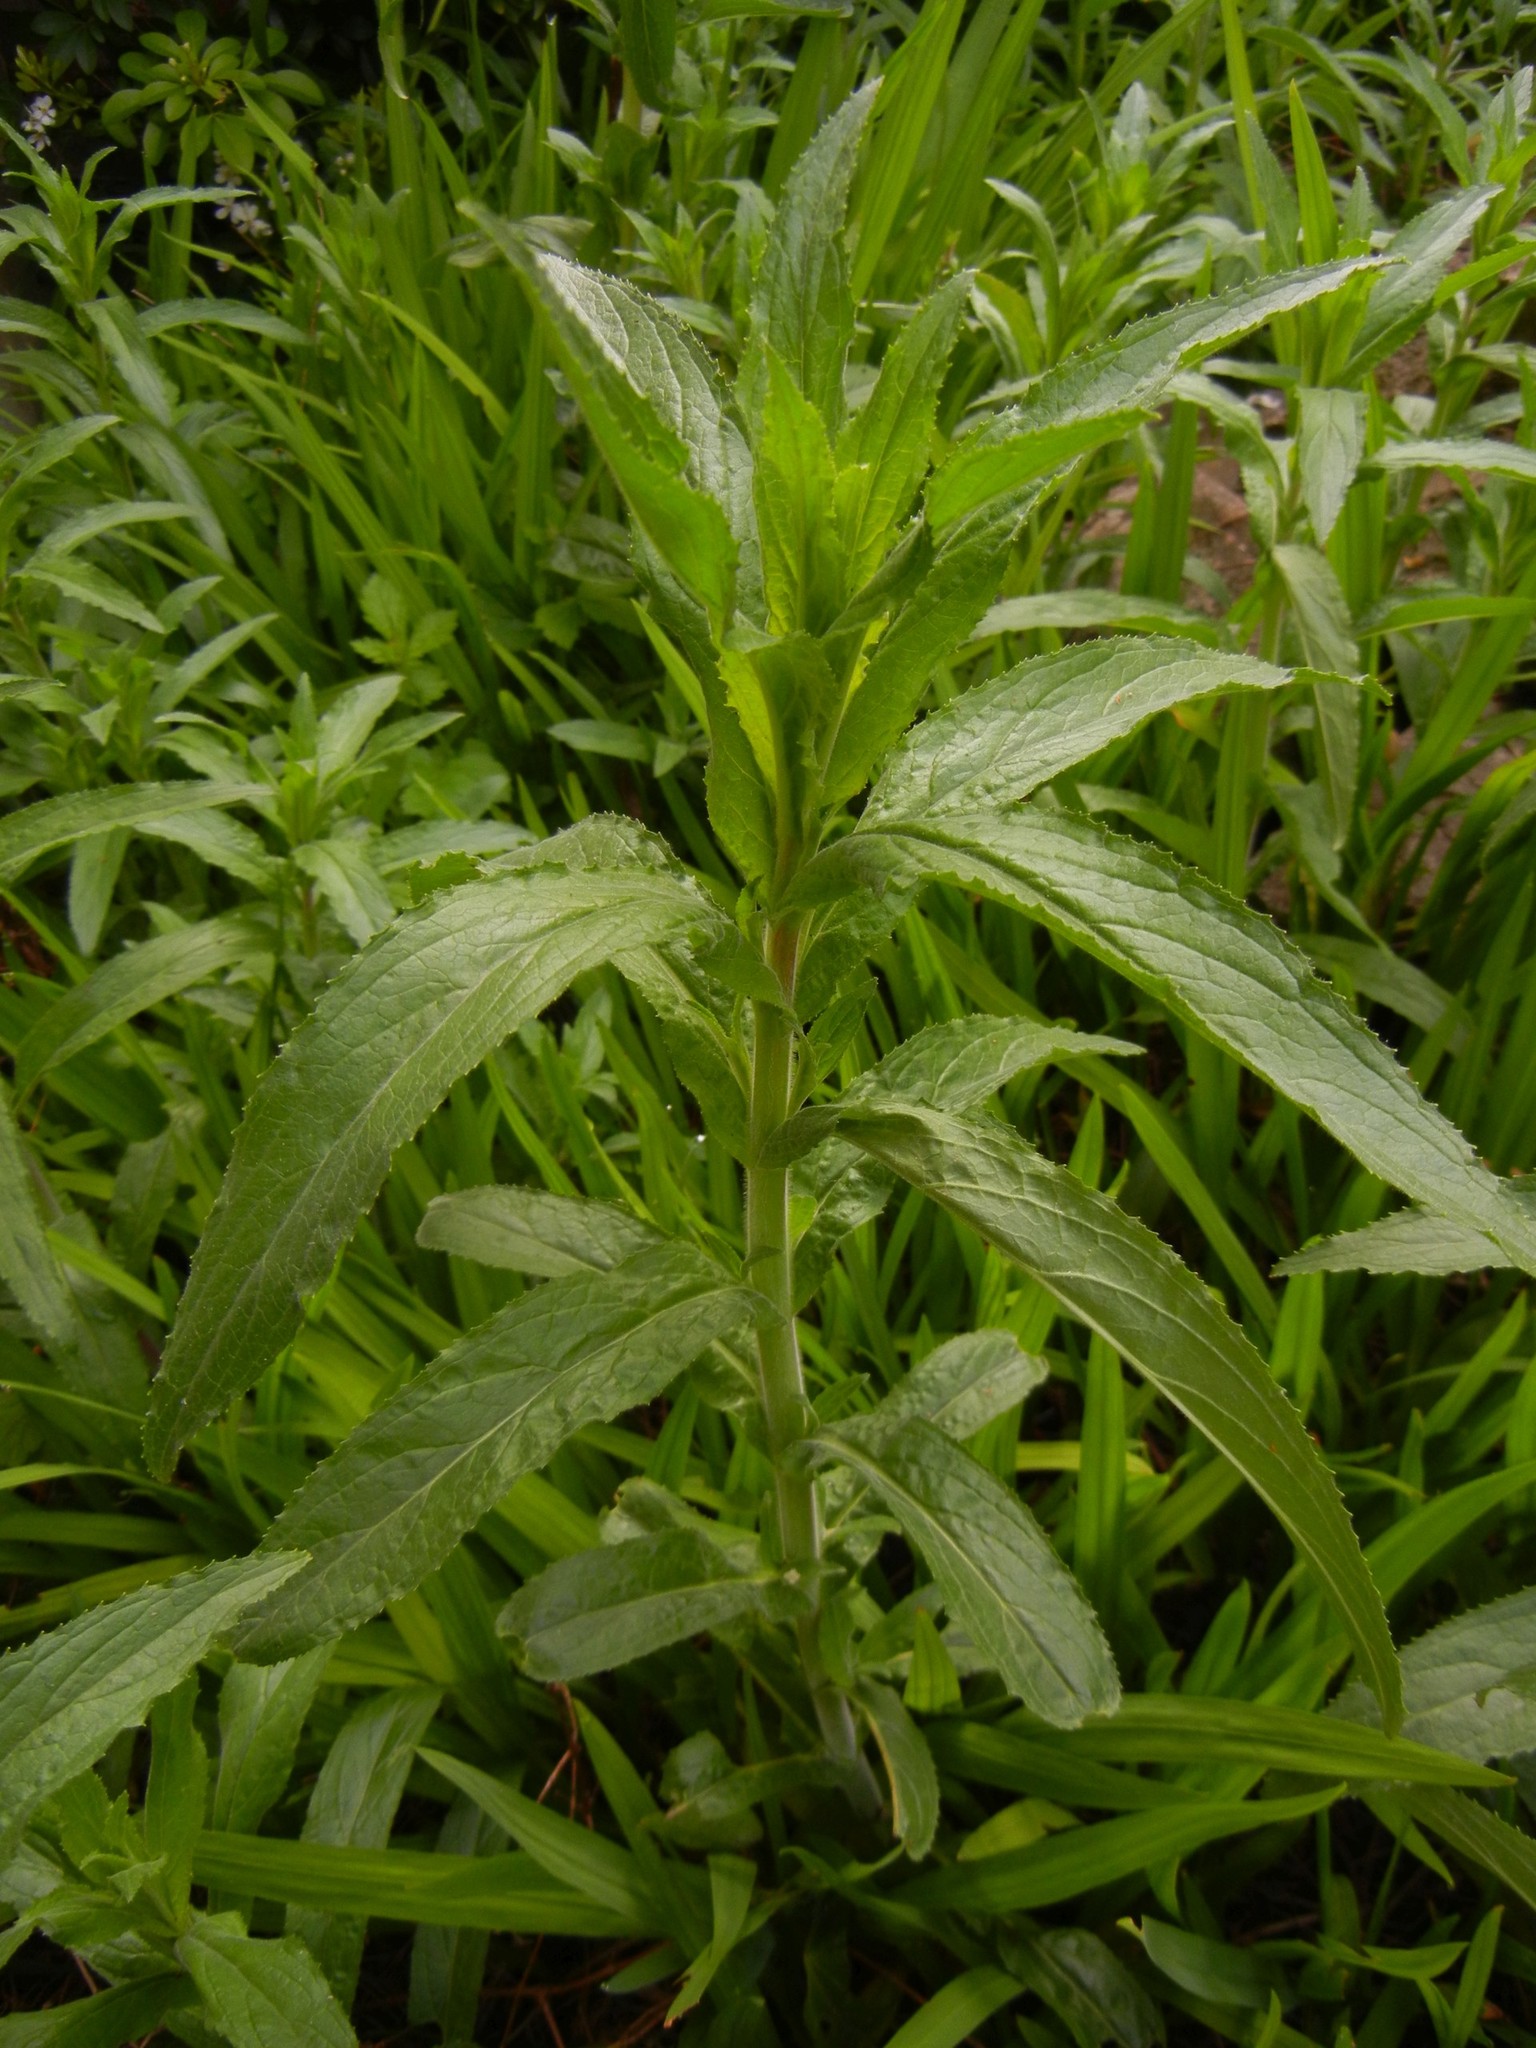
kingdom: Plantae
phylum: Tracheophyta
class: Magnoliopsida
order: Myrtales
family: Onagraceae
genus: Epilobium
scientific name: Epilobium hirsutum
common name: Great willowherb
